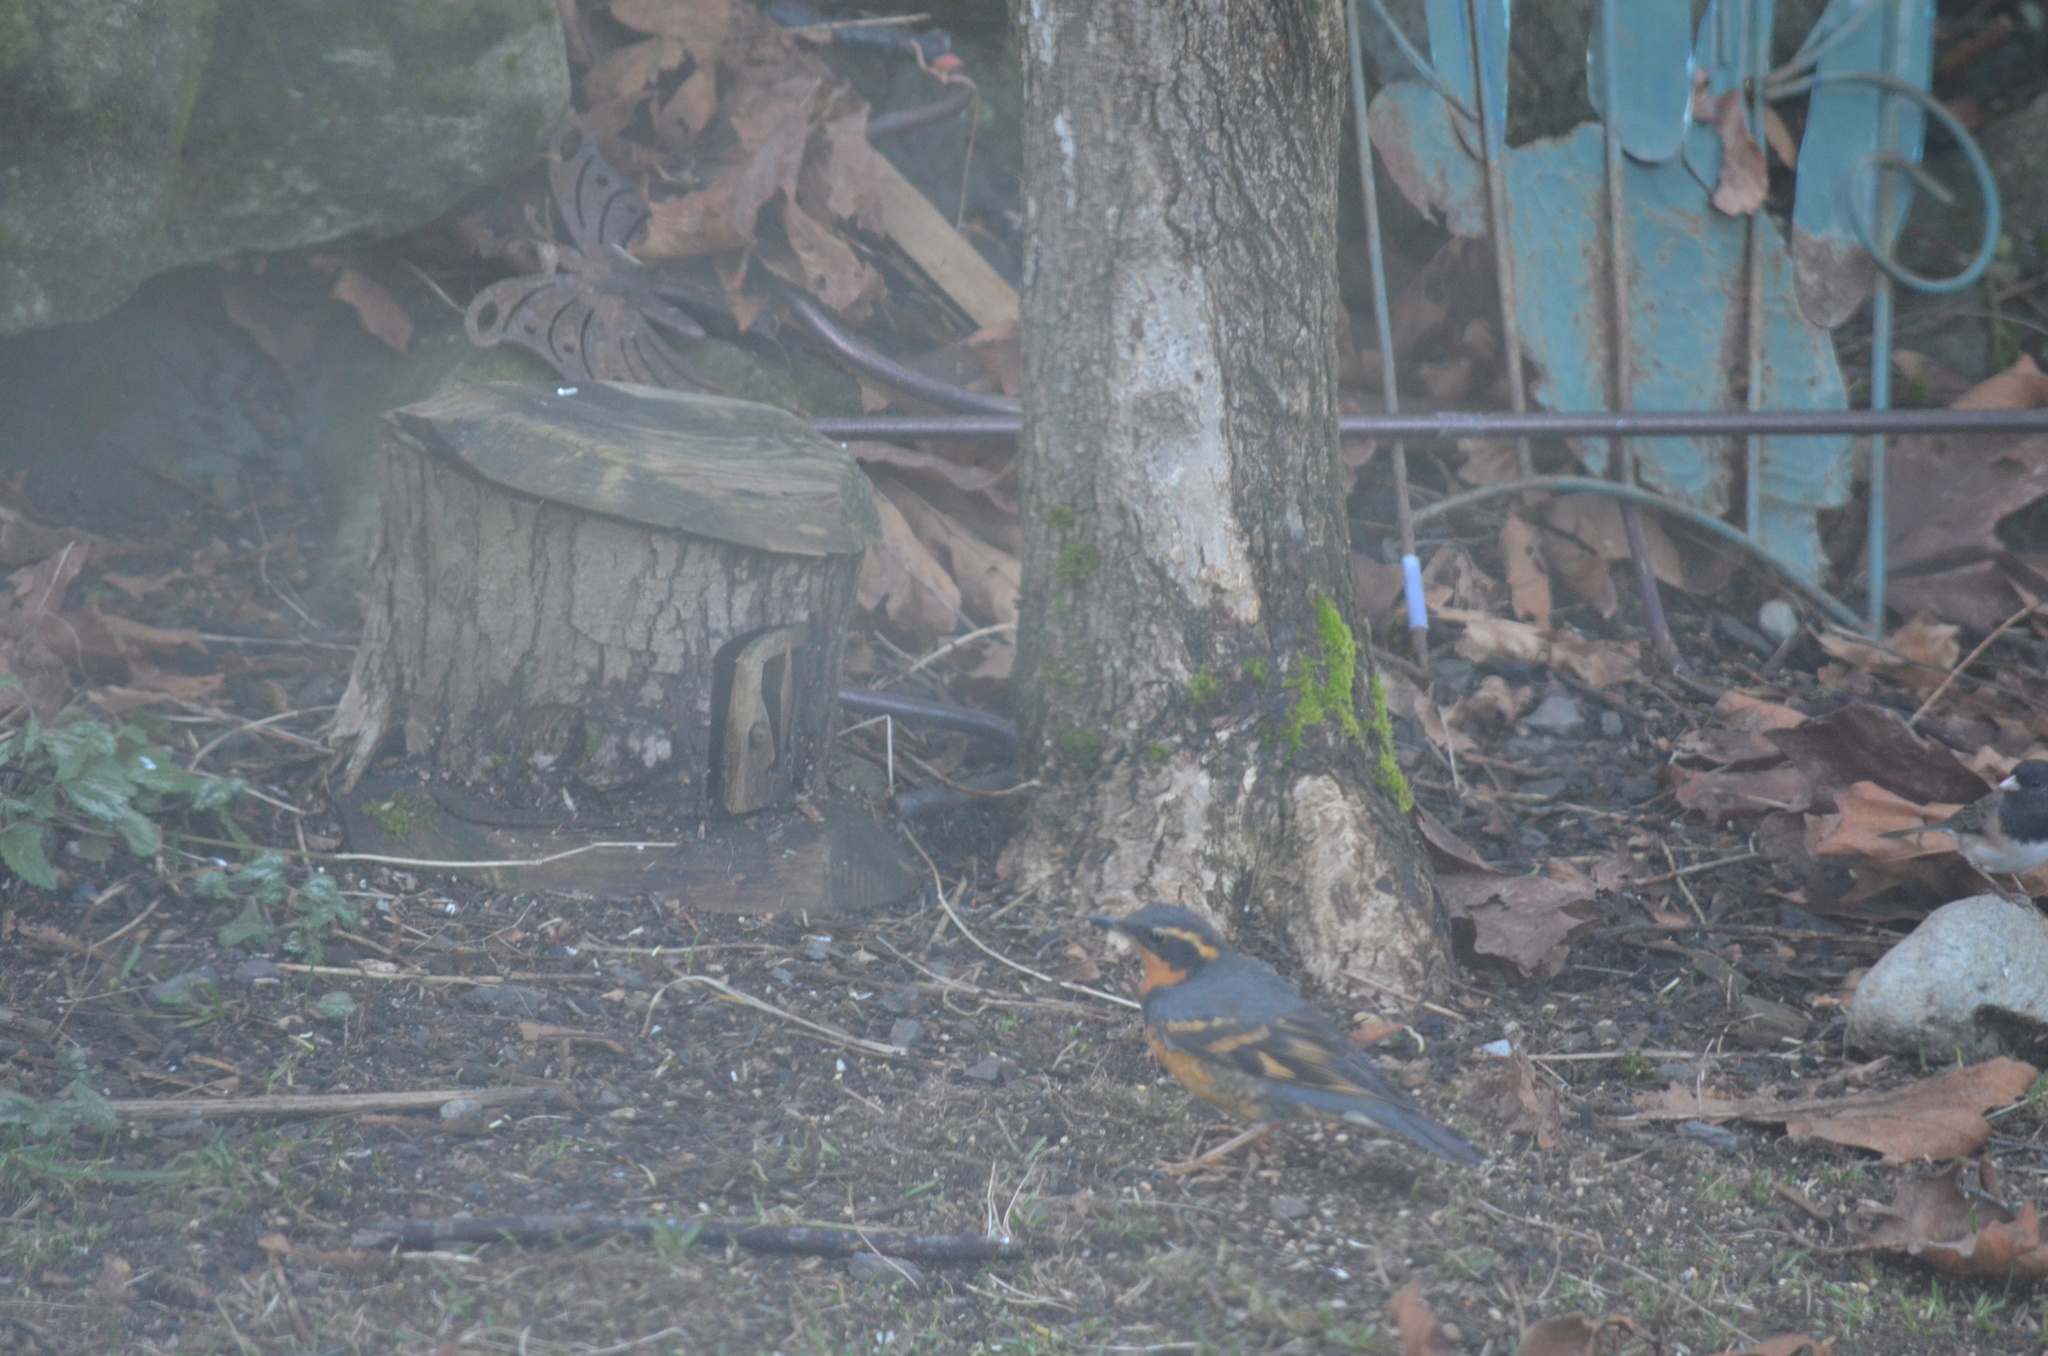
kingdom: Animalia
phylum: Chordata
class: Aves
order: Passeriformes
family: Turdidae
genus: Ixoreus
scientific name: Ixoreus naevius
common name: Varied thrush
